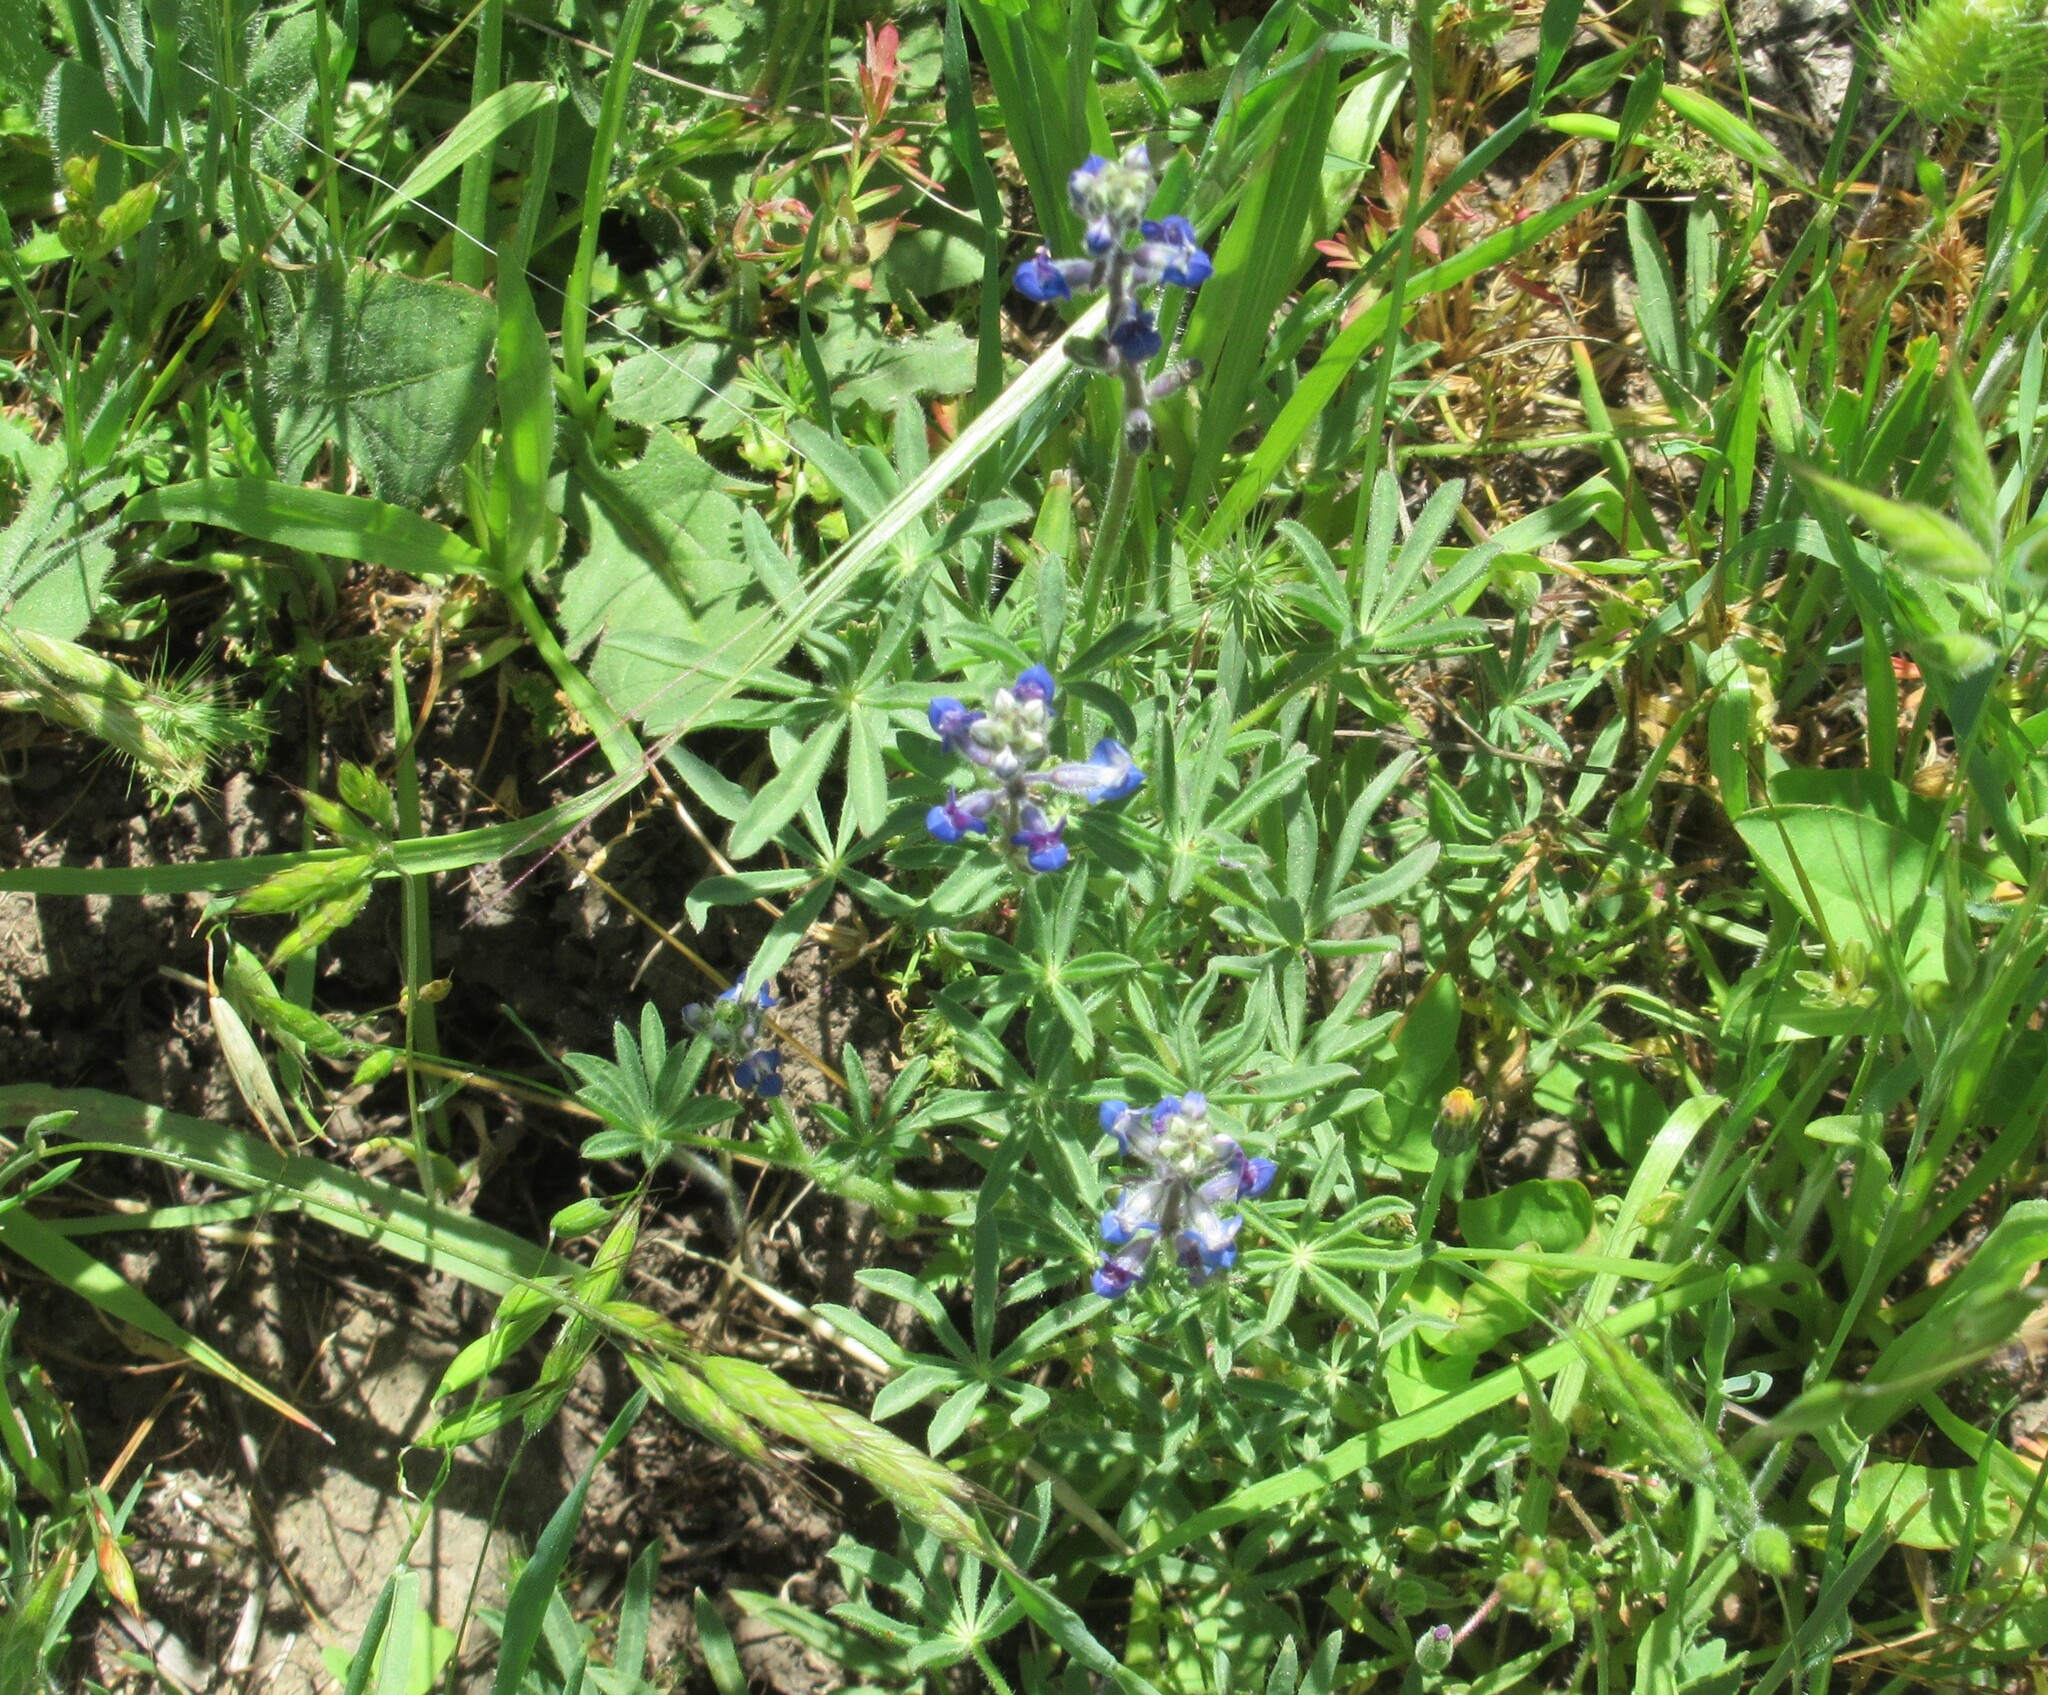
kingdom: Plantae
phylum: Tracheophyta
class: Magnoliopsida
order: Fabales
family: Fabaceae
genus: Lupinus
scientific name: Lupinus bicolor
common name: Miniature lupine
